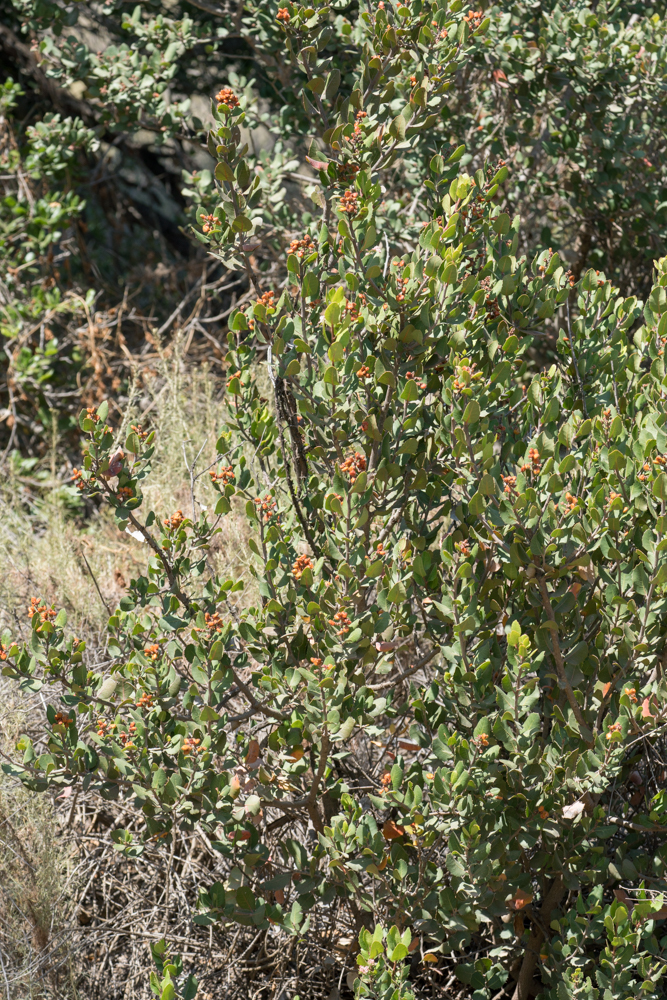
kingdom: Plantae
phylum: Tracheophyta
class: Magnoliopsida
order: Sapindales
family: Anacardiaceae
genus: Rhus
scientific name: Rhus integrifolia
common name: Lemonade sumac
